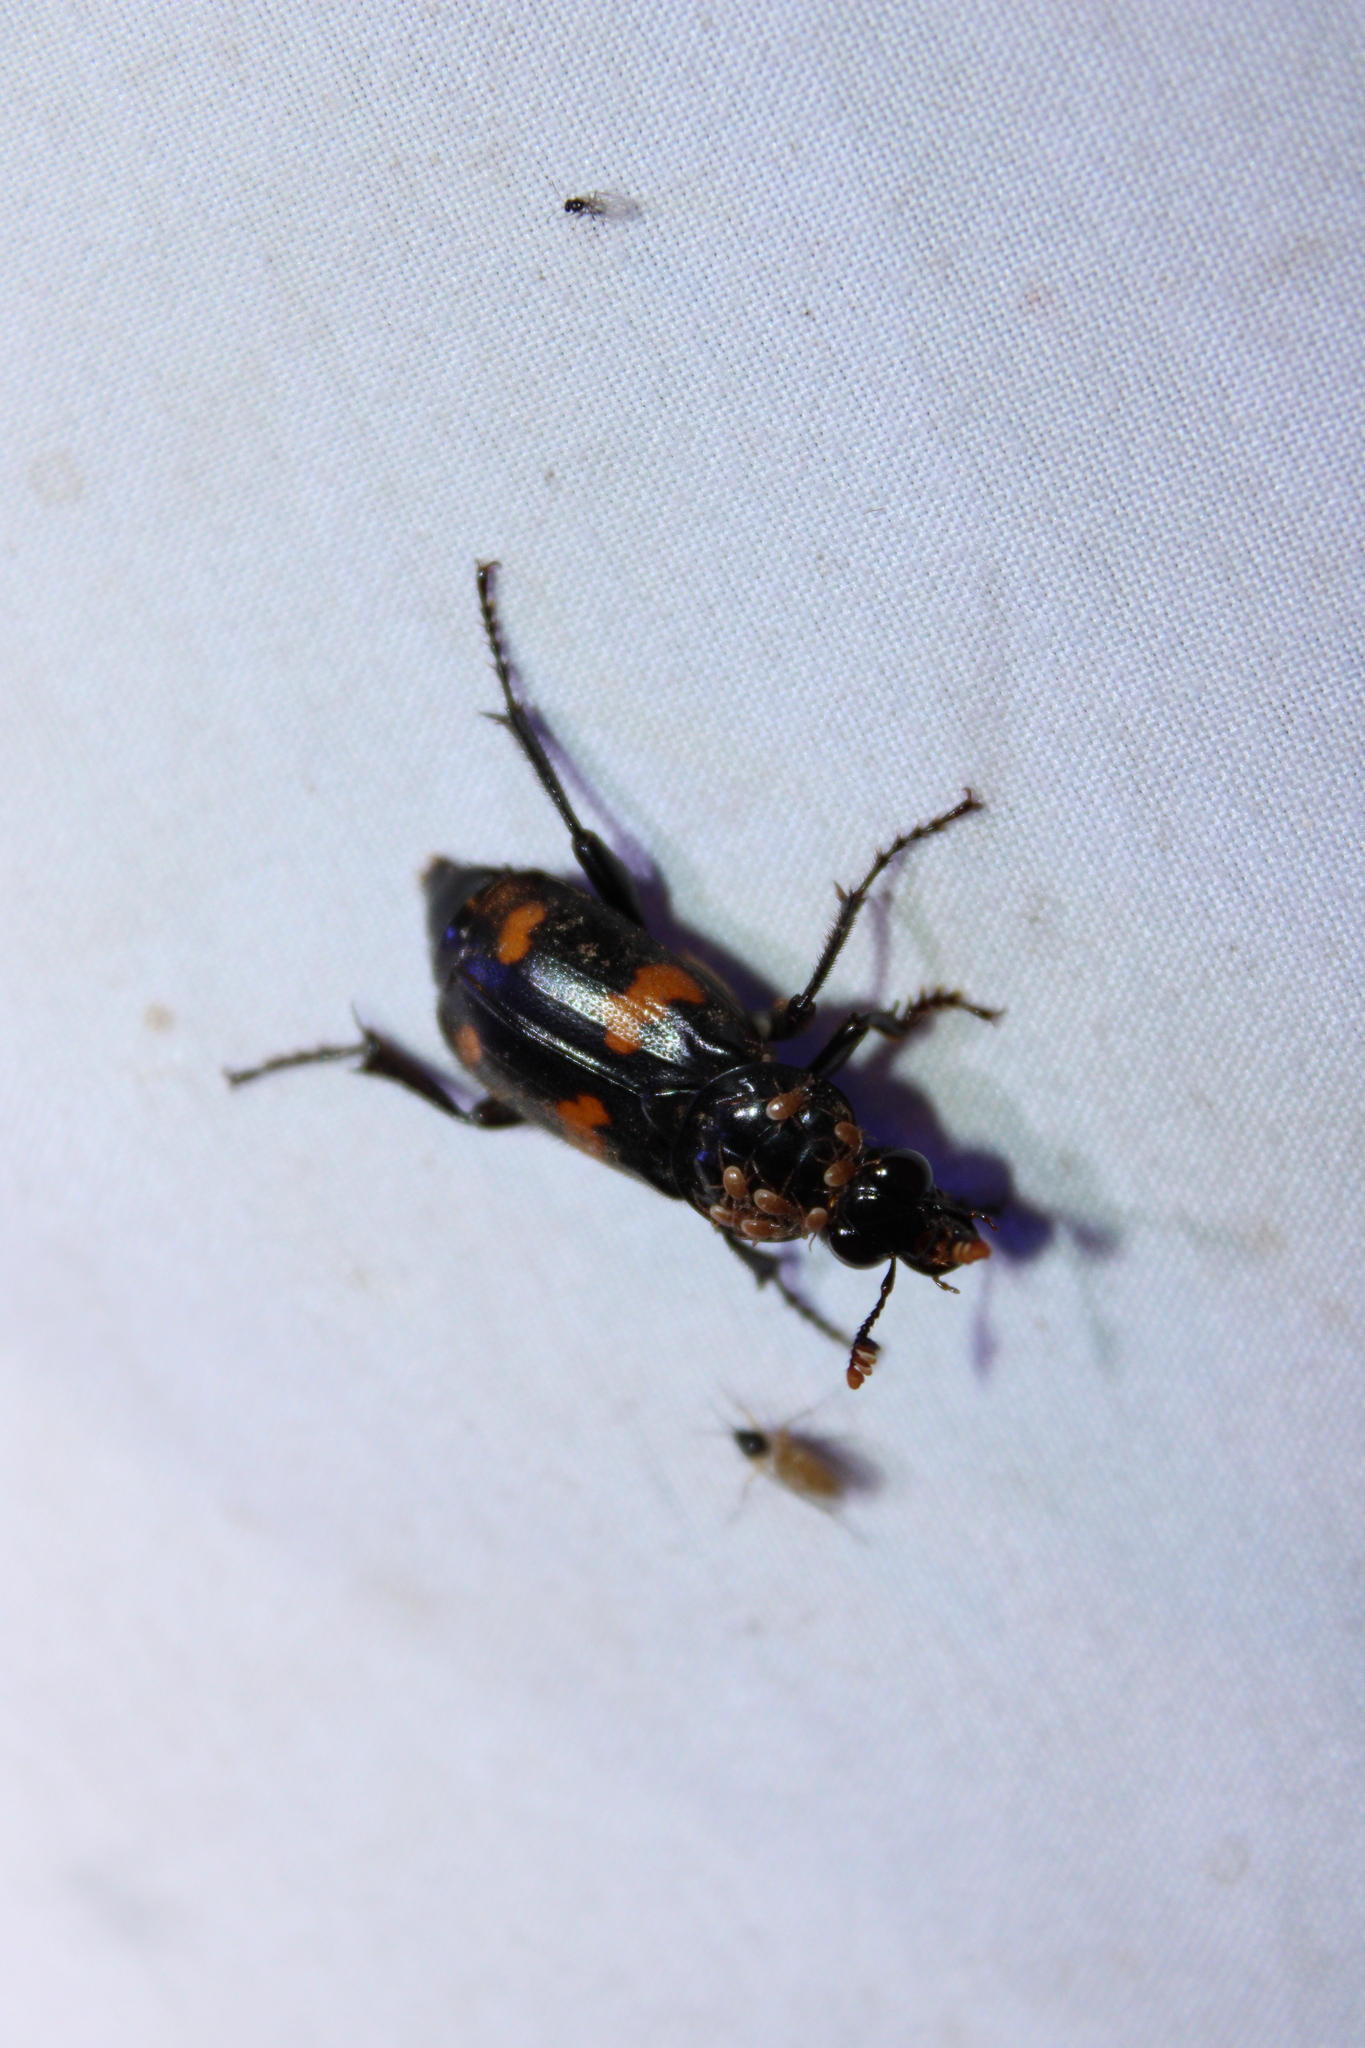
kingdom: Animalia
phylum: Arthropoda
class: Insecta
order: Coleoptera
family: Staphylinidae
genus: Nicrophorus
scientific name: Nicrophorus orbicollis
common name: Roundneck sexton beetle
